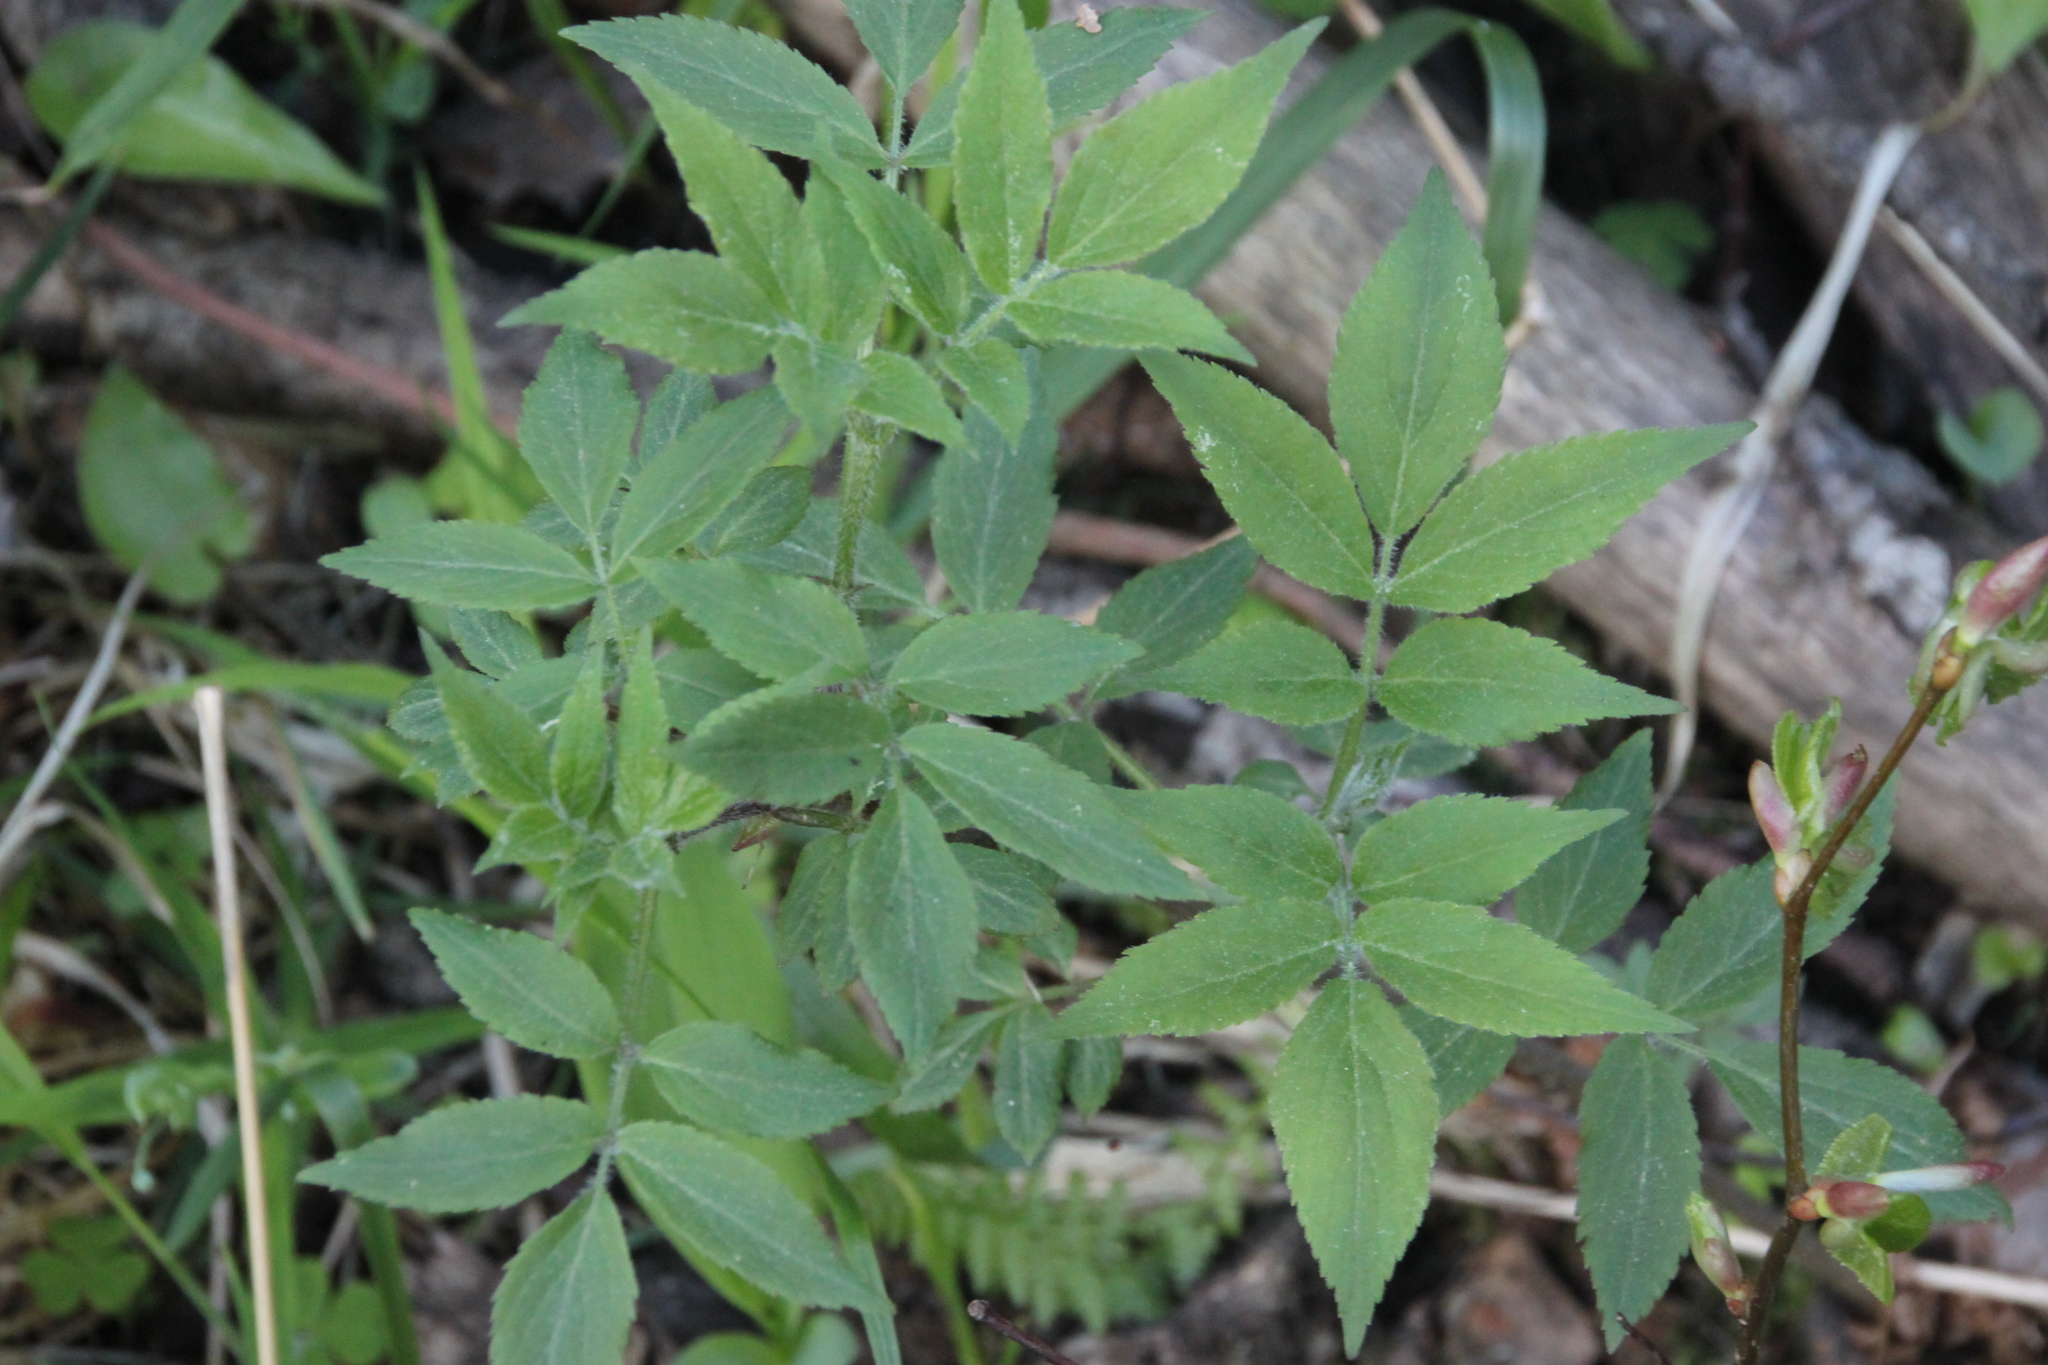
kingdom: Plantae
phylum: Tracheophyta
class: Magnoliopsida
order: Dipsacales
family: Viburnaceae
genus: Sambucus
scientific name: Sambucus racemosa
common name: Red-berried elder
